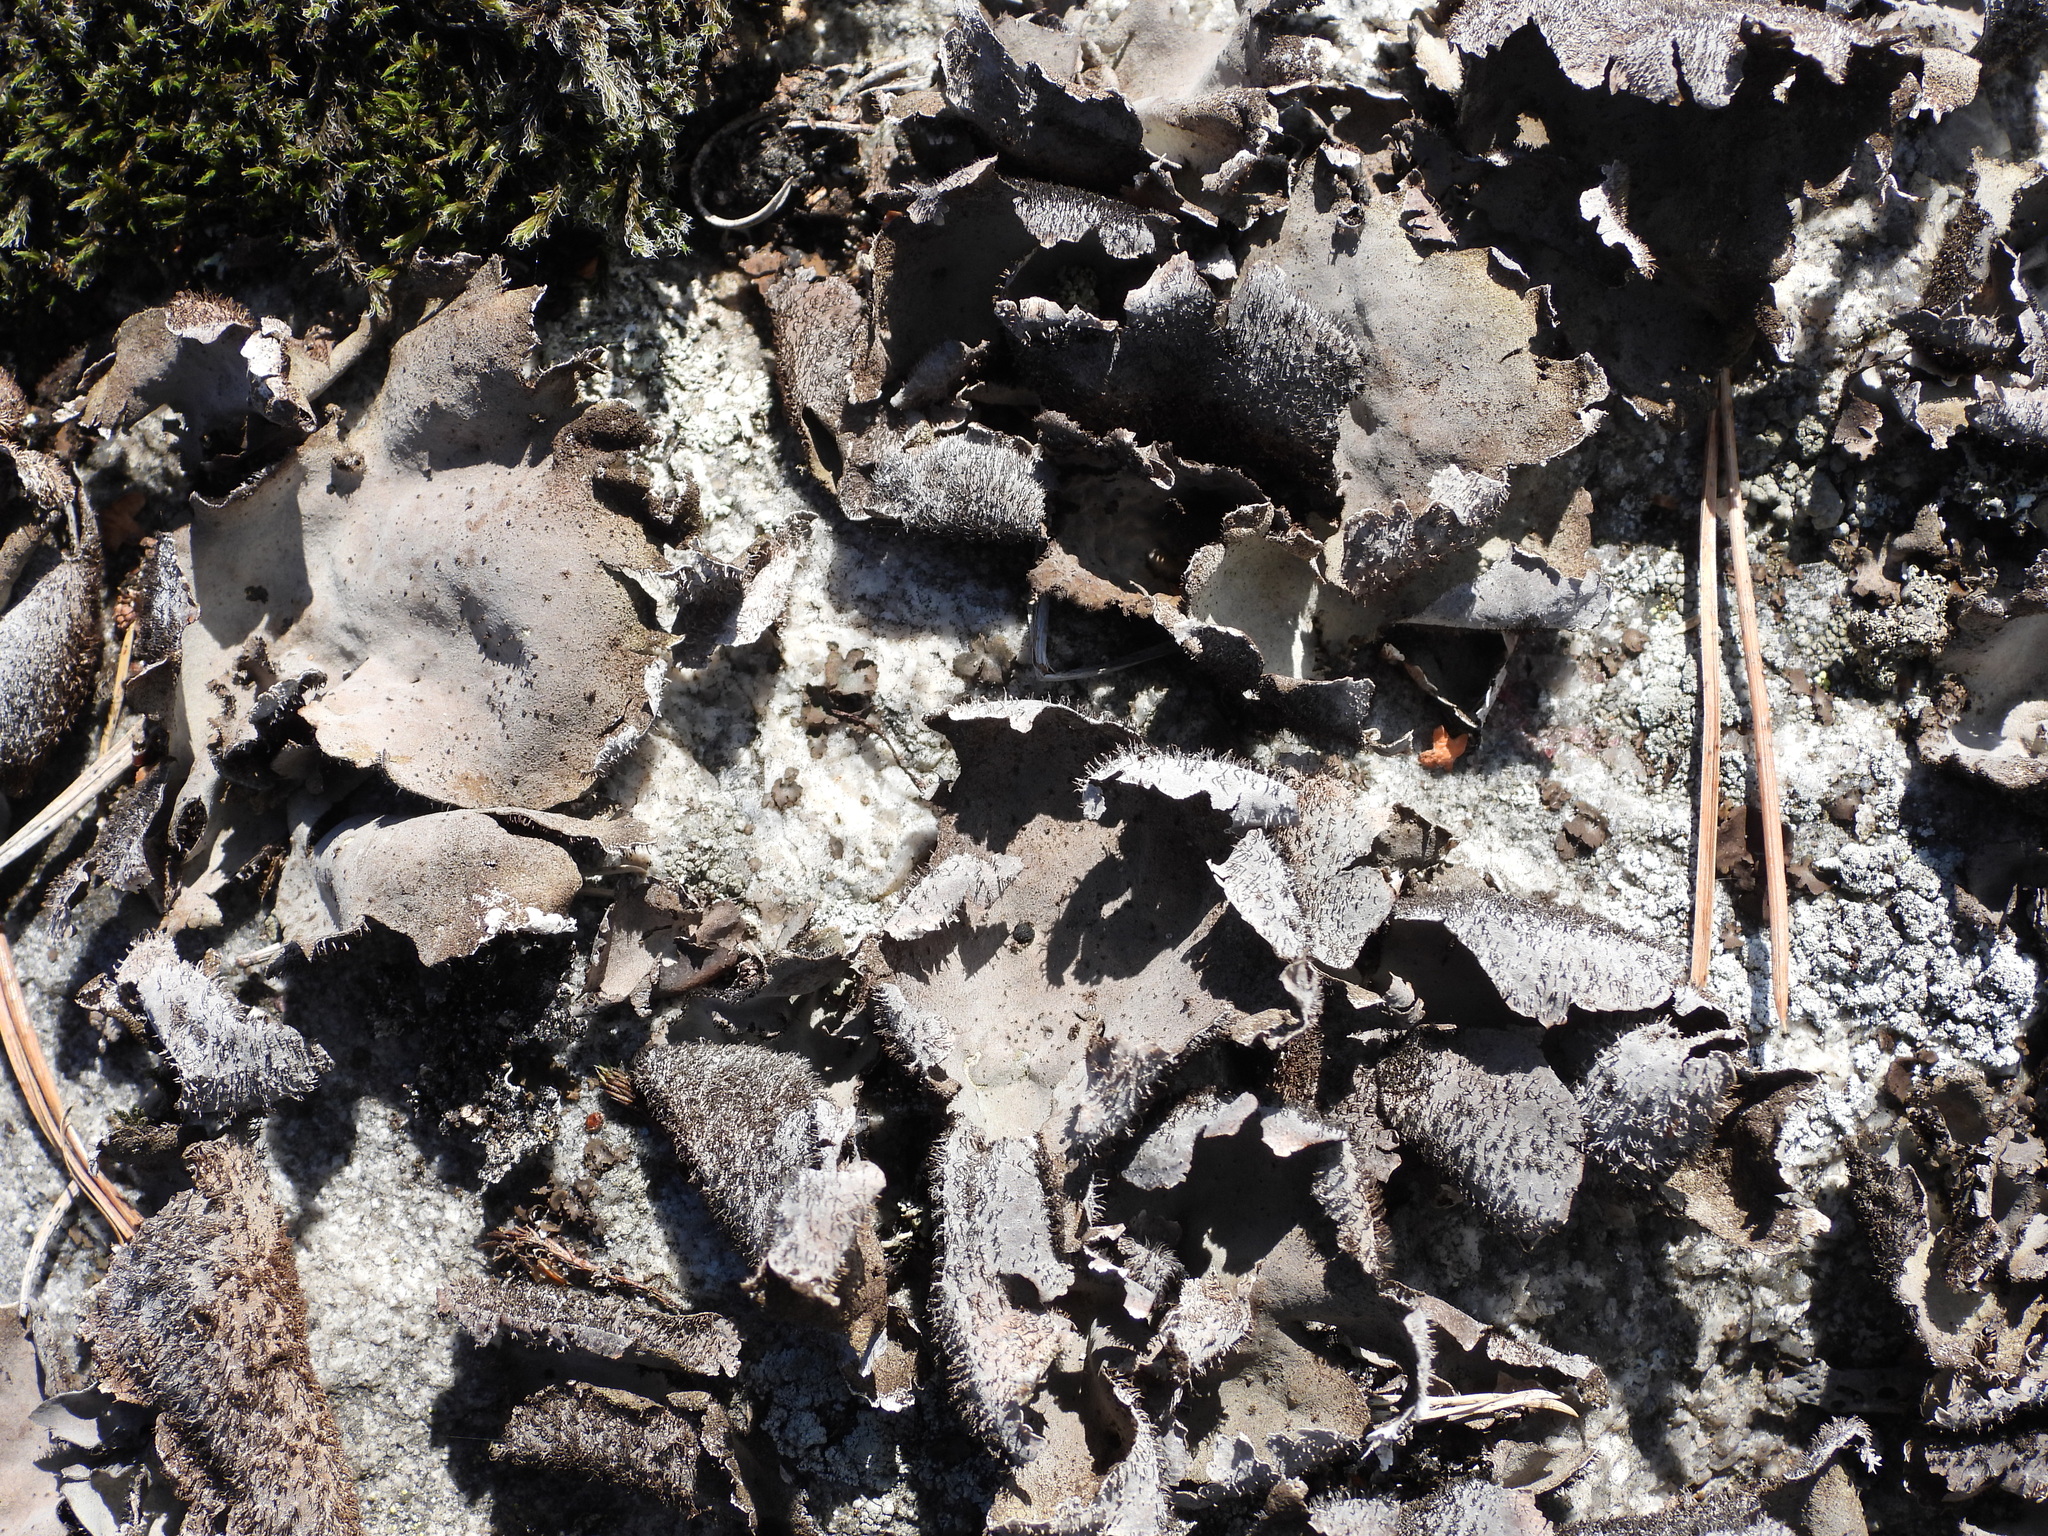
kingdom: Fungi
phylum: Ascomycota
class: Lecanoromycetes
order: Umbilicariales
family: Umbilicariaceae
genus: Umbilicaria
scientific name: Umbilicaria hirsuta
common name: Granulating rocktripe lichen
